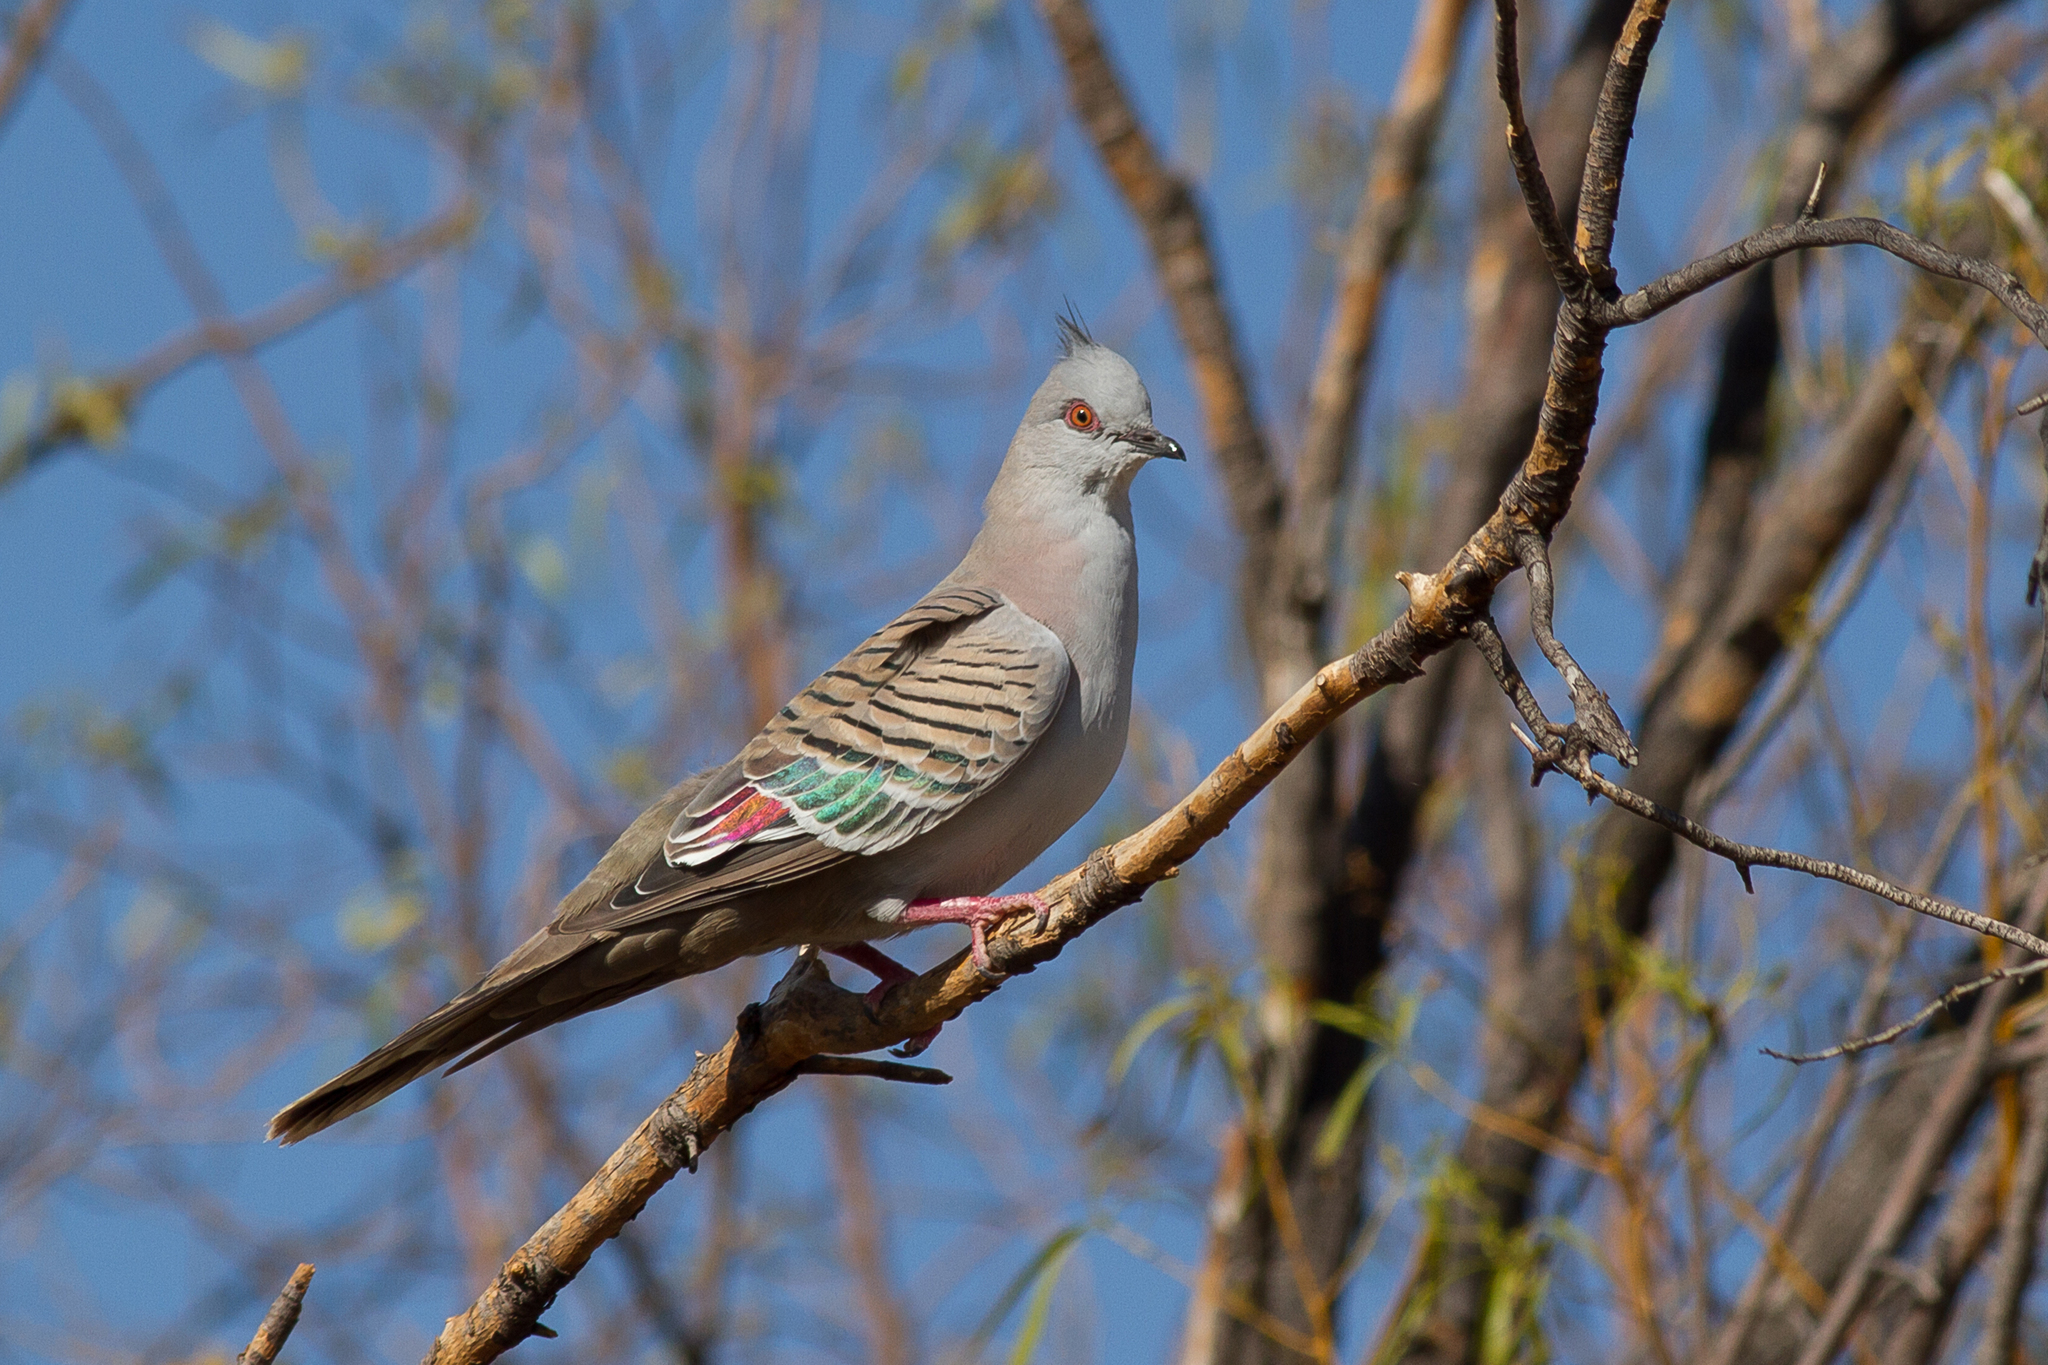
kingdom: Animalia
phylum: Chordata
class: Aves
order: Columbiformes
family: Columbidae
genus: Ocyphaps
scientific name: Ocyphaps lophotes
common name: Crested pigeon
